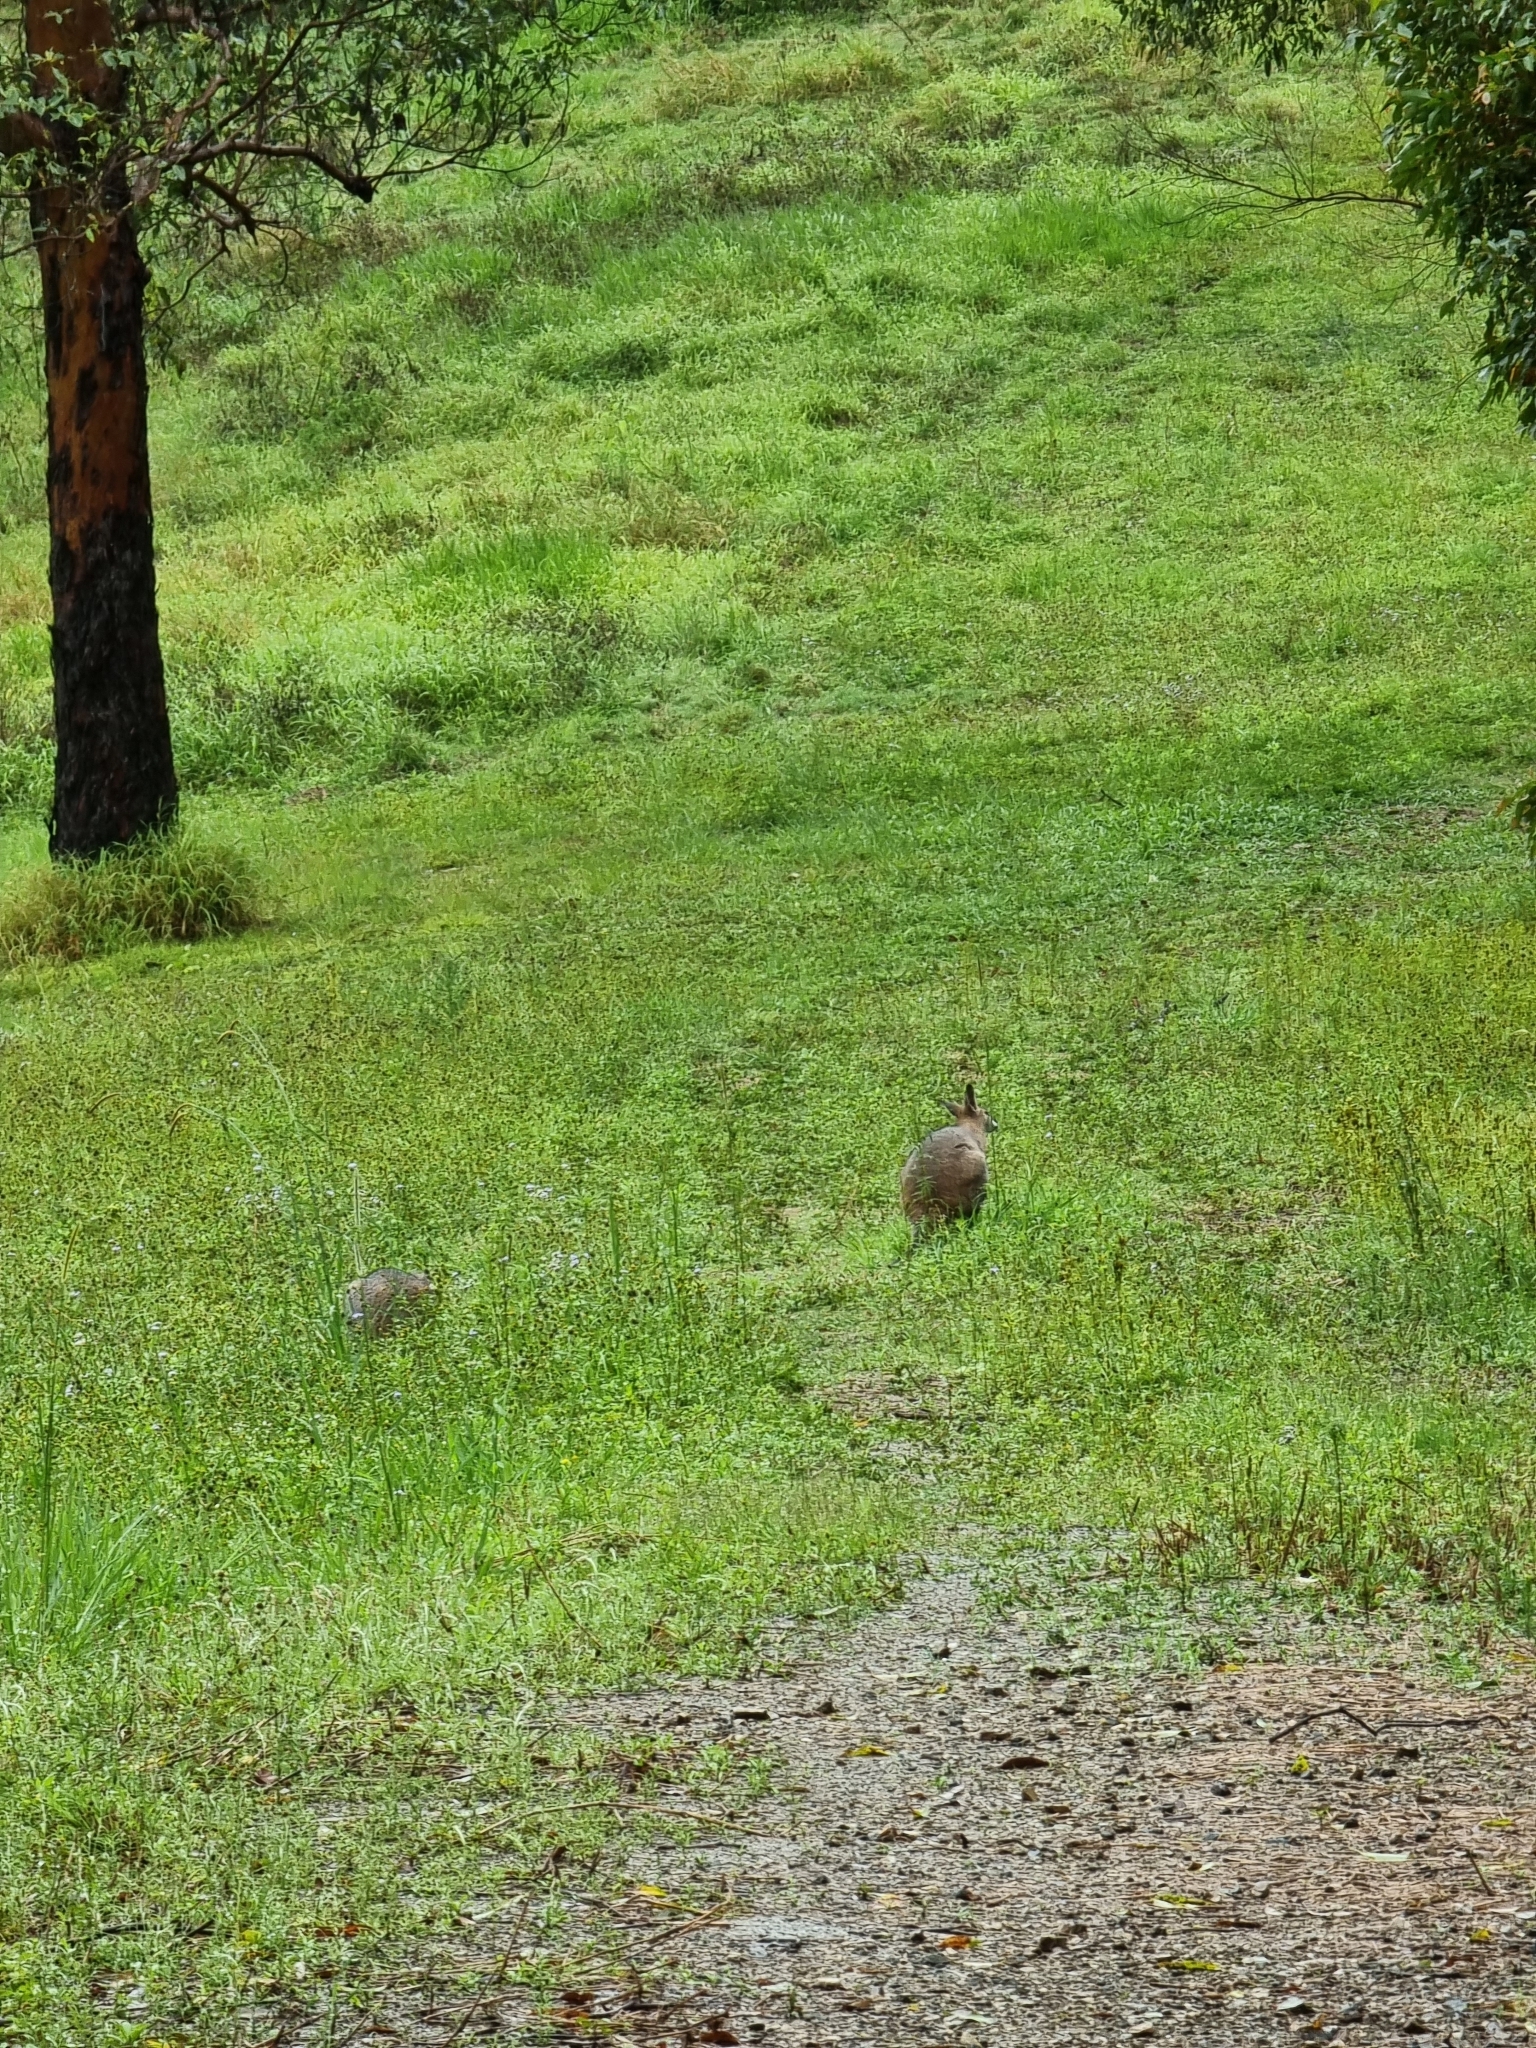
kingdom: Animalia
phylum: Chordata
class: Mammalia
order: Diprotodontia
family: Macropodidae
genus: Notamacropus
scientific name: Notamacropus rufogriseus
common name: Red-necked wallaby
